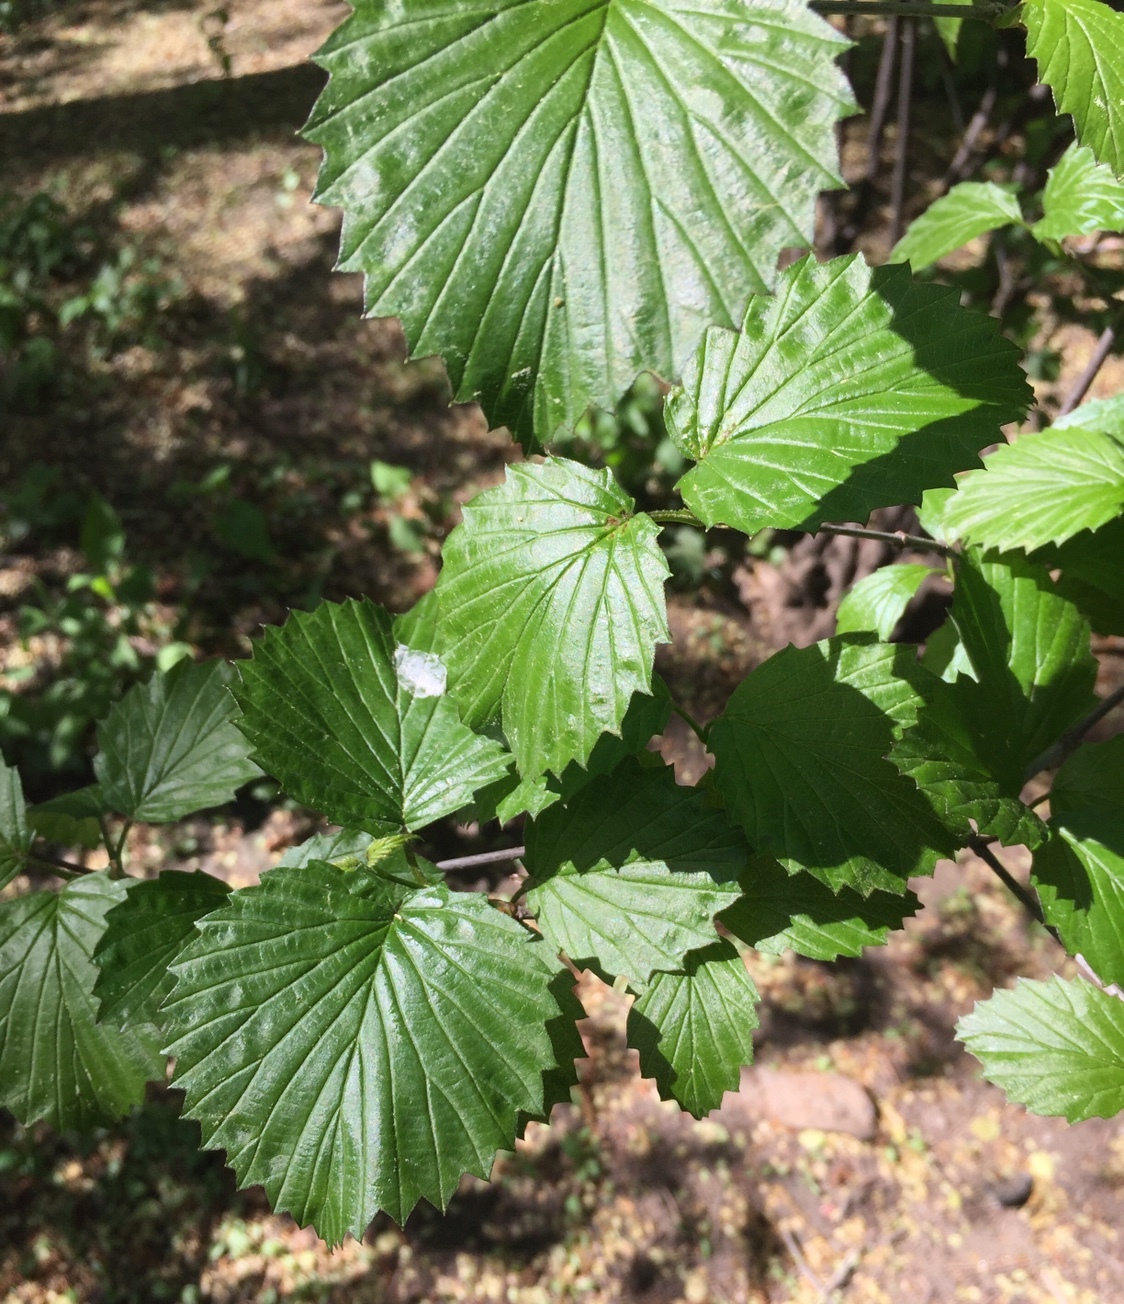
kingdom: Plantae
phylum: Tracheophyta
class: Magnoliopsida
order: Dipsacales
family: Viburnaceae
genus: Viburnum
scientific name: Viburnum dentatum
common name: Arrow-wood
